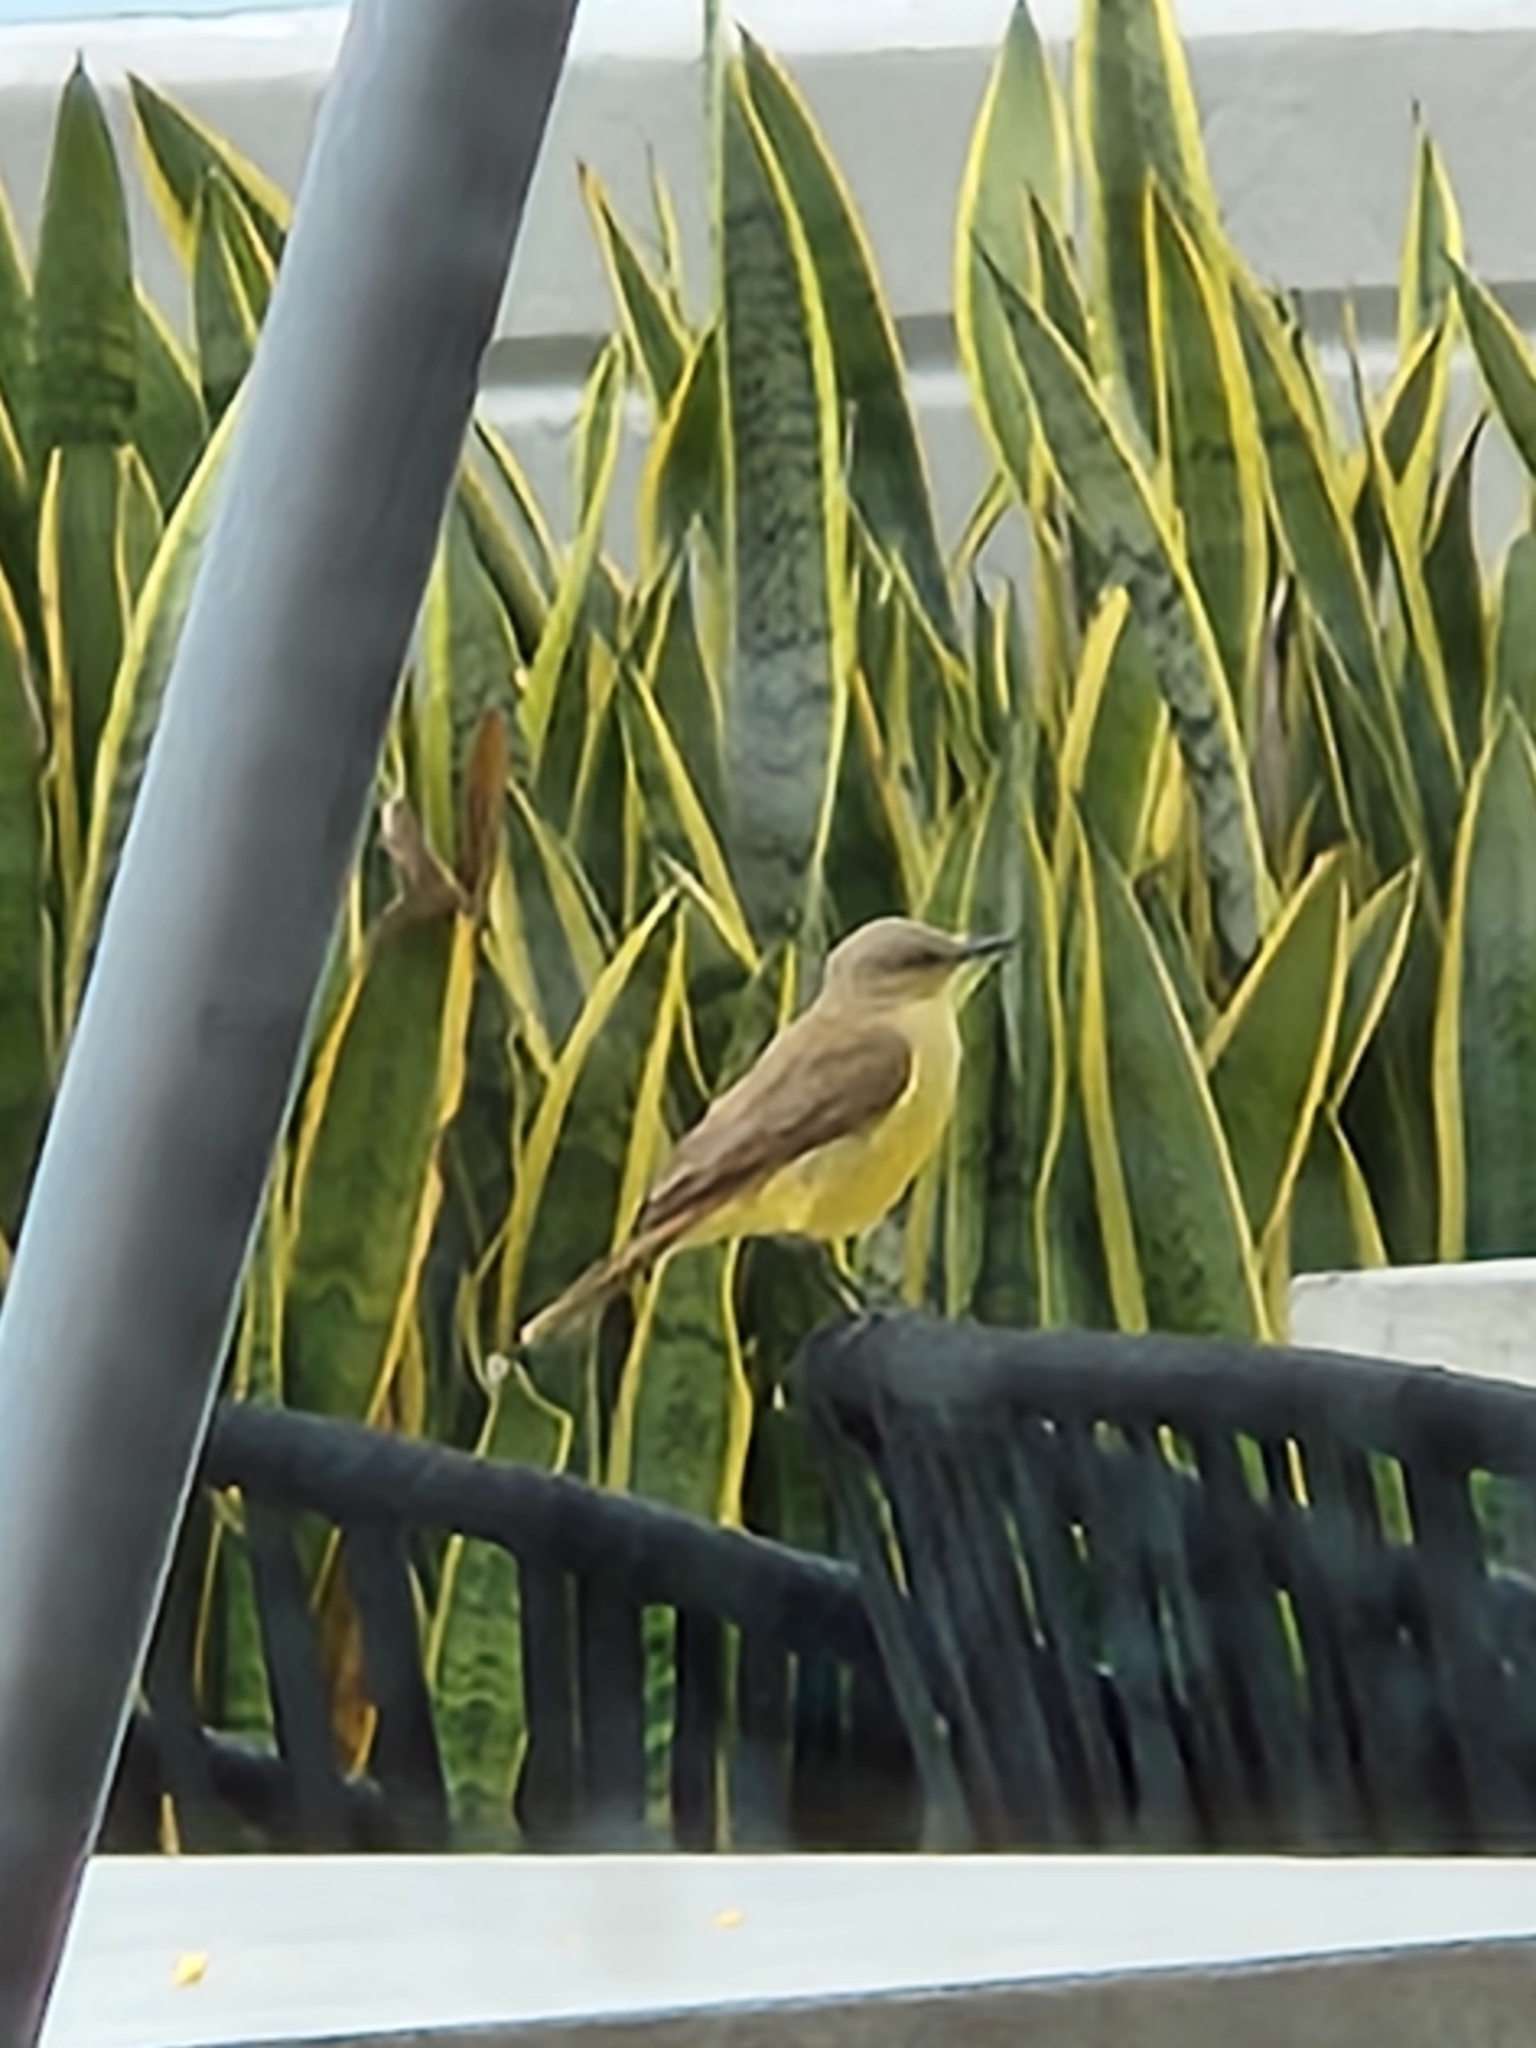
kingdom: Animalia
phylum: Chordata
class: Aves
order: Passeriformes
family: Tyrannidae
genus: Machetornis
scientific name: Machetornis rixosa
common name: Cattle tyrant
